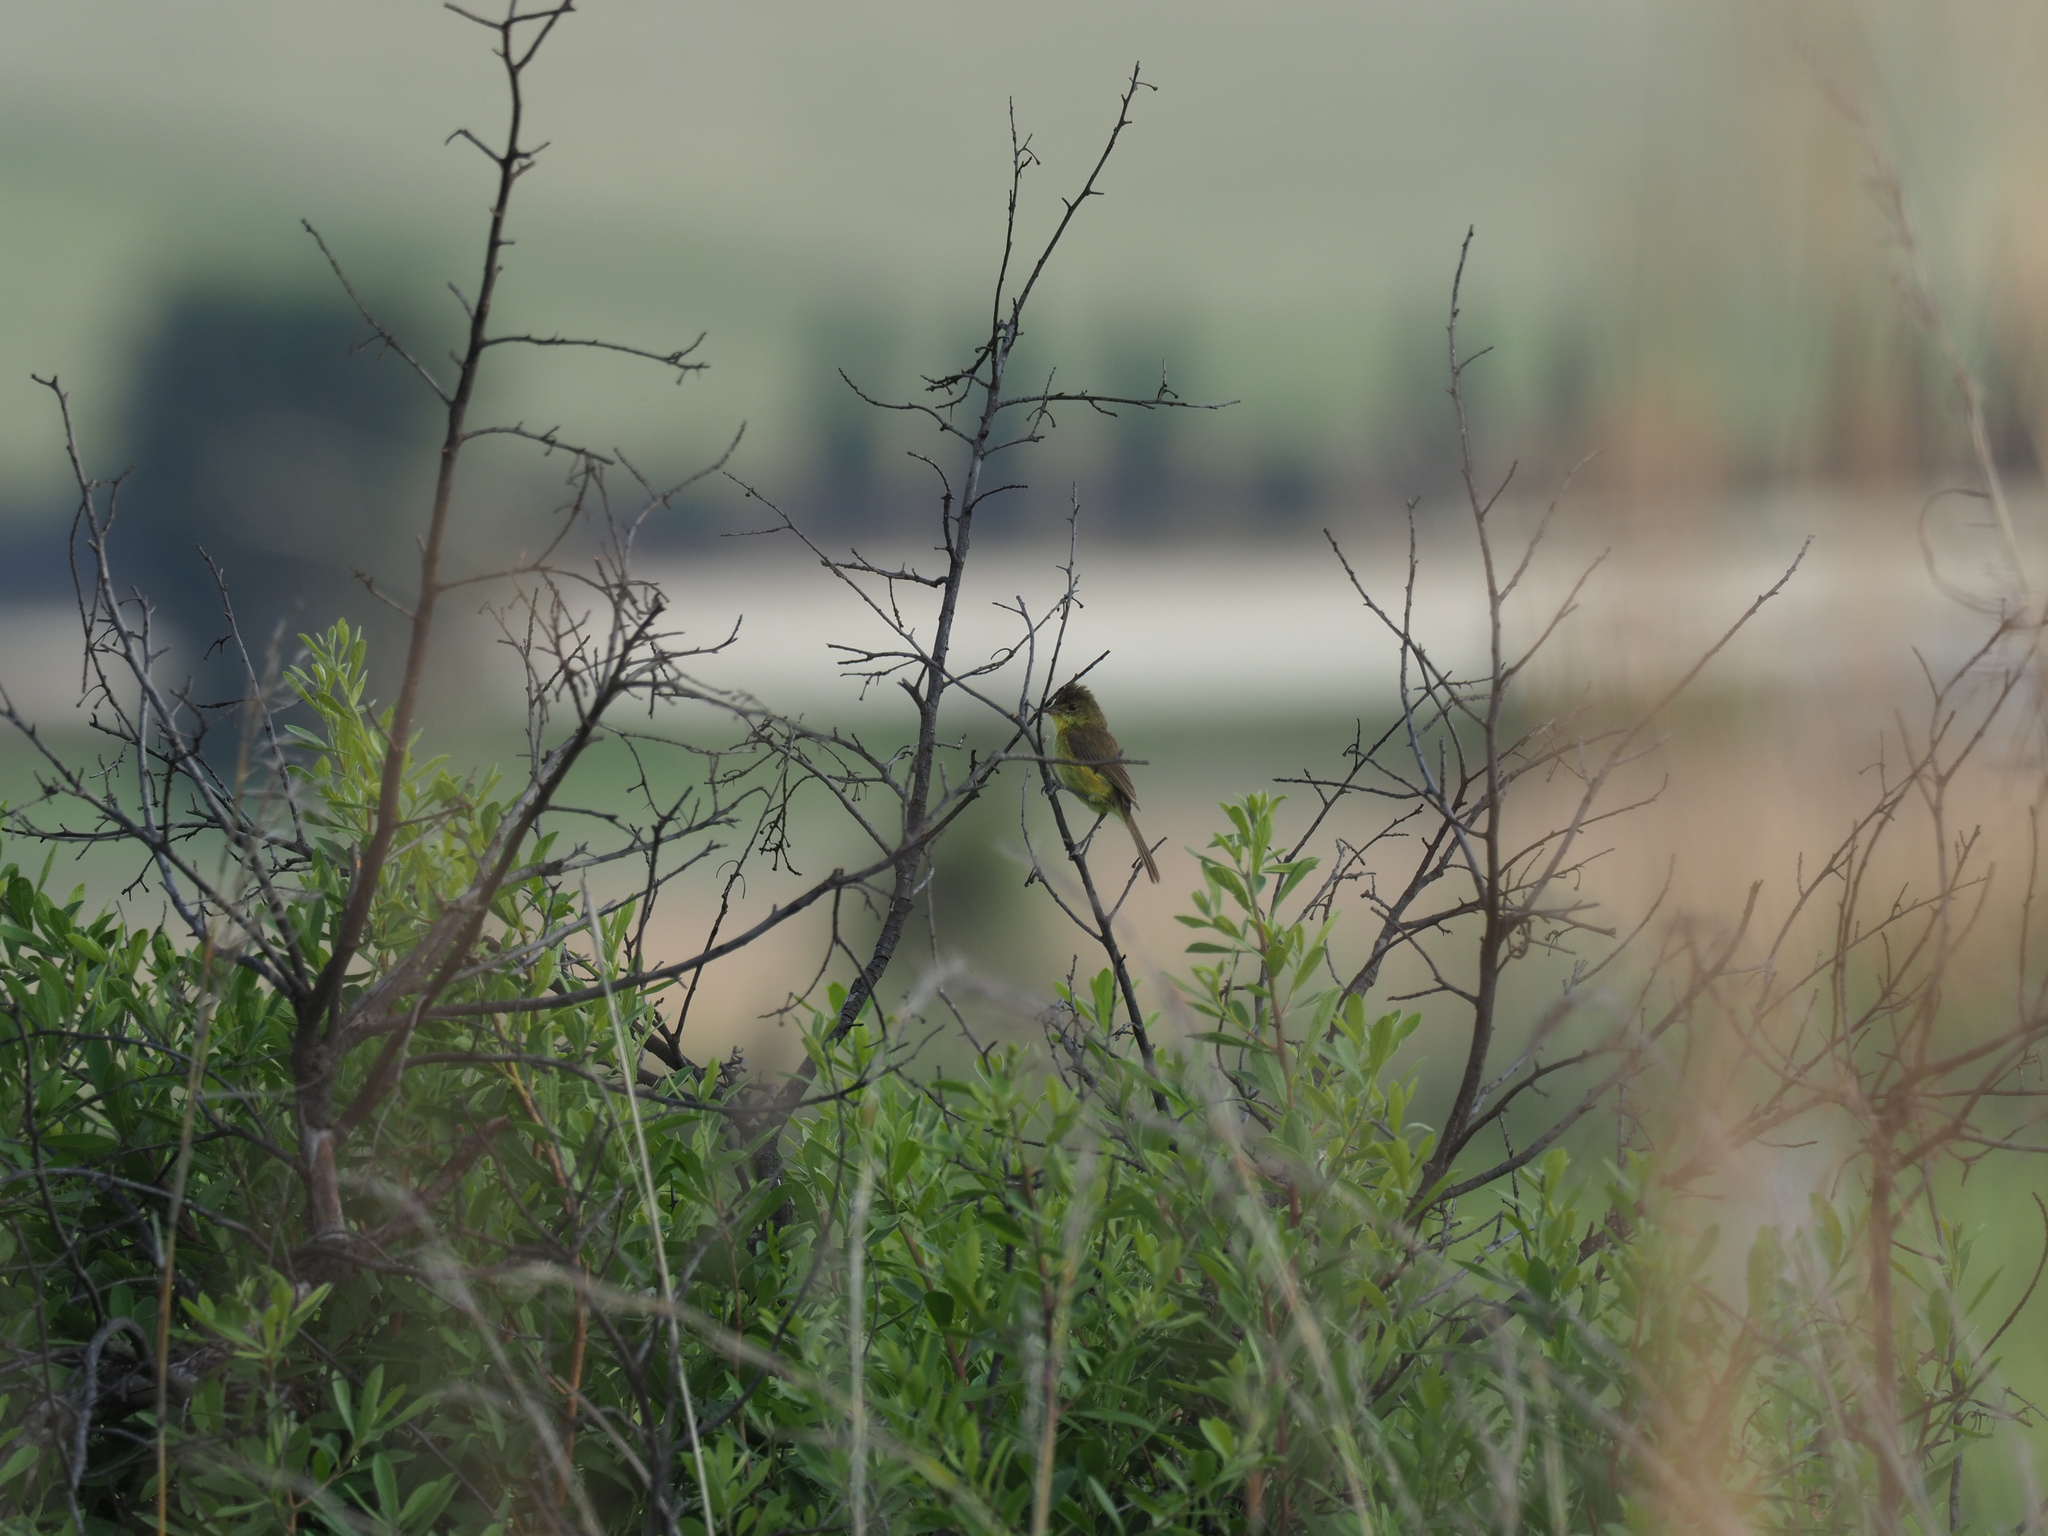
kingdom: Animalia
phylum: Chordata
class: Aves
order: Passeriformes
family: Acrocephalidae
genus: Iduna
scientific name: Iduna natalensis
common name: African yellow warbler
